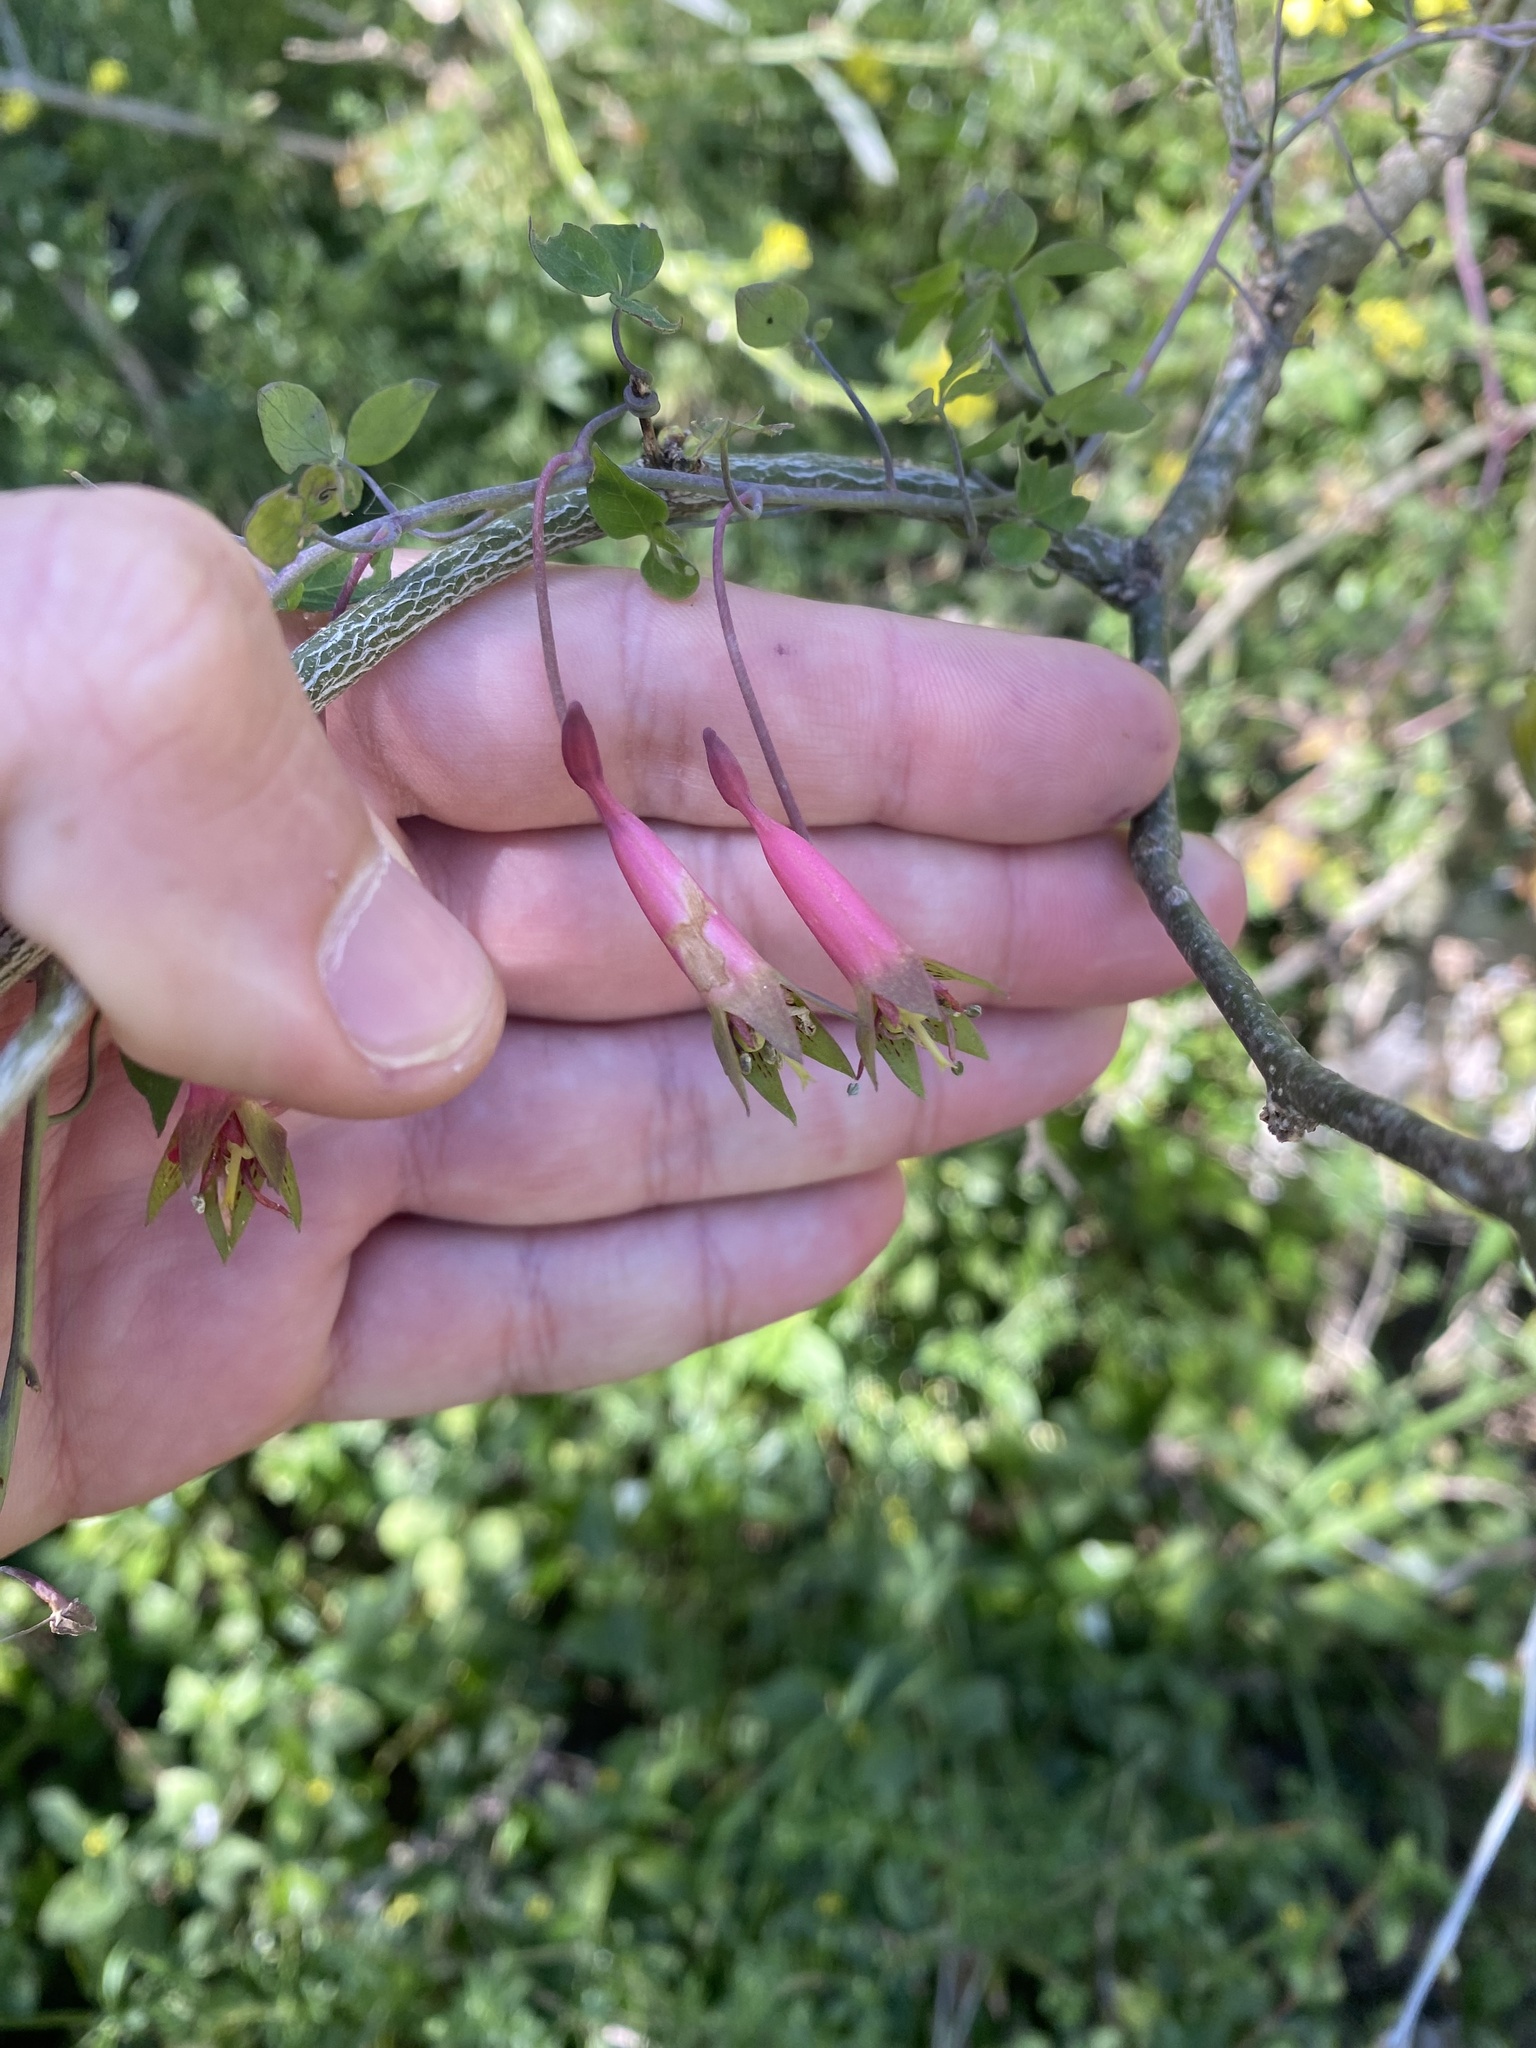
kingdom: Plantae
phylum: Tracheophyta
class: Magnoliopsida
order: Brassicales
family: Tropaeolaceae
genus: Tropaeolum
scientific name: Tropaeolum pentaphyllum
